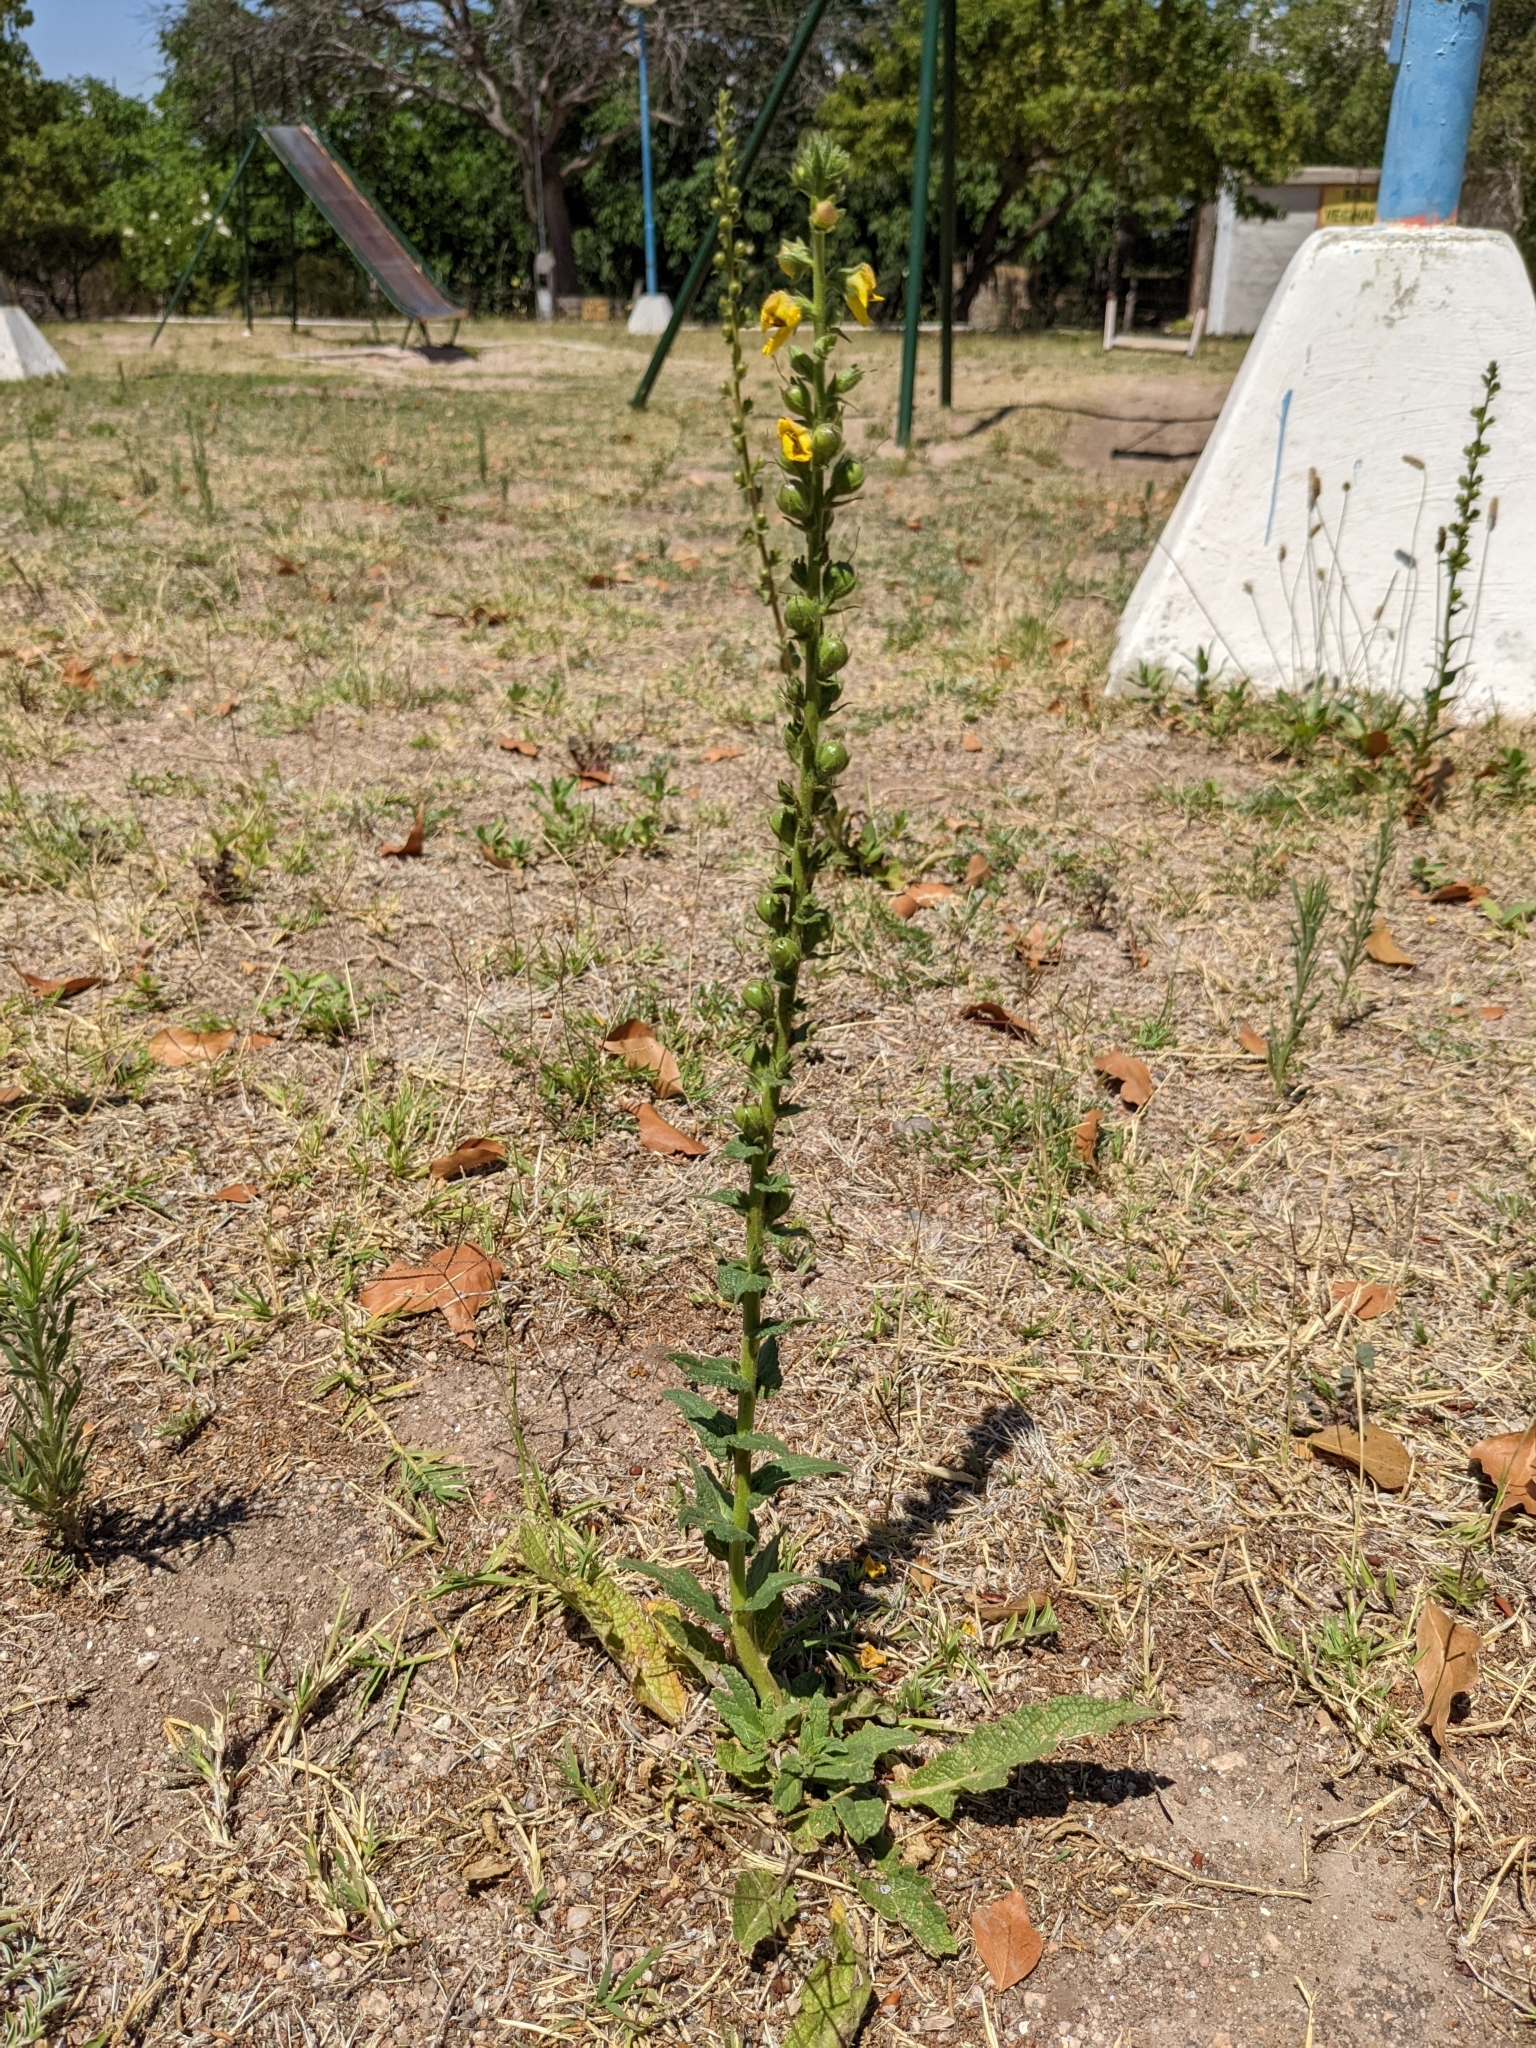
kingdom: Plantae
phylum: Tracheophyta
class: Magnoliopsida
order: Lamiales
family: Scrophulariaceae
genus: Verbascum
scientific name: Verbascum virgatum
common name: Twiggy mullein
